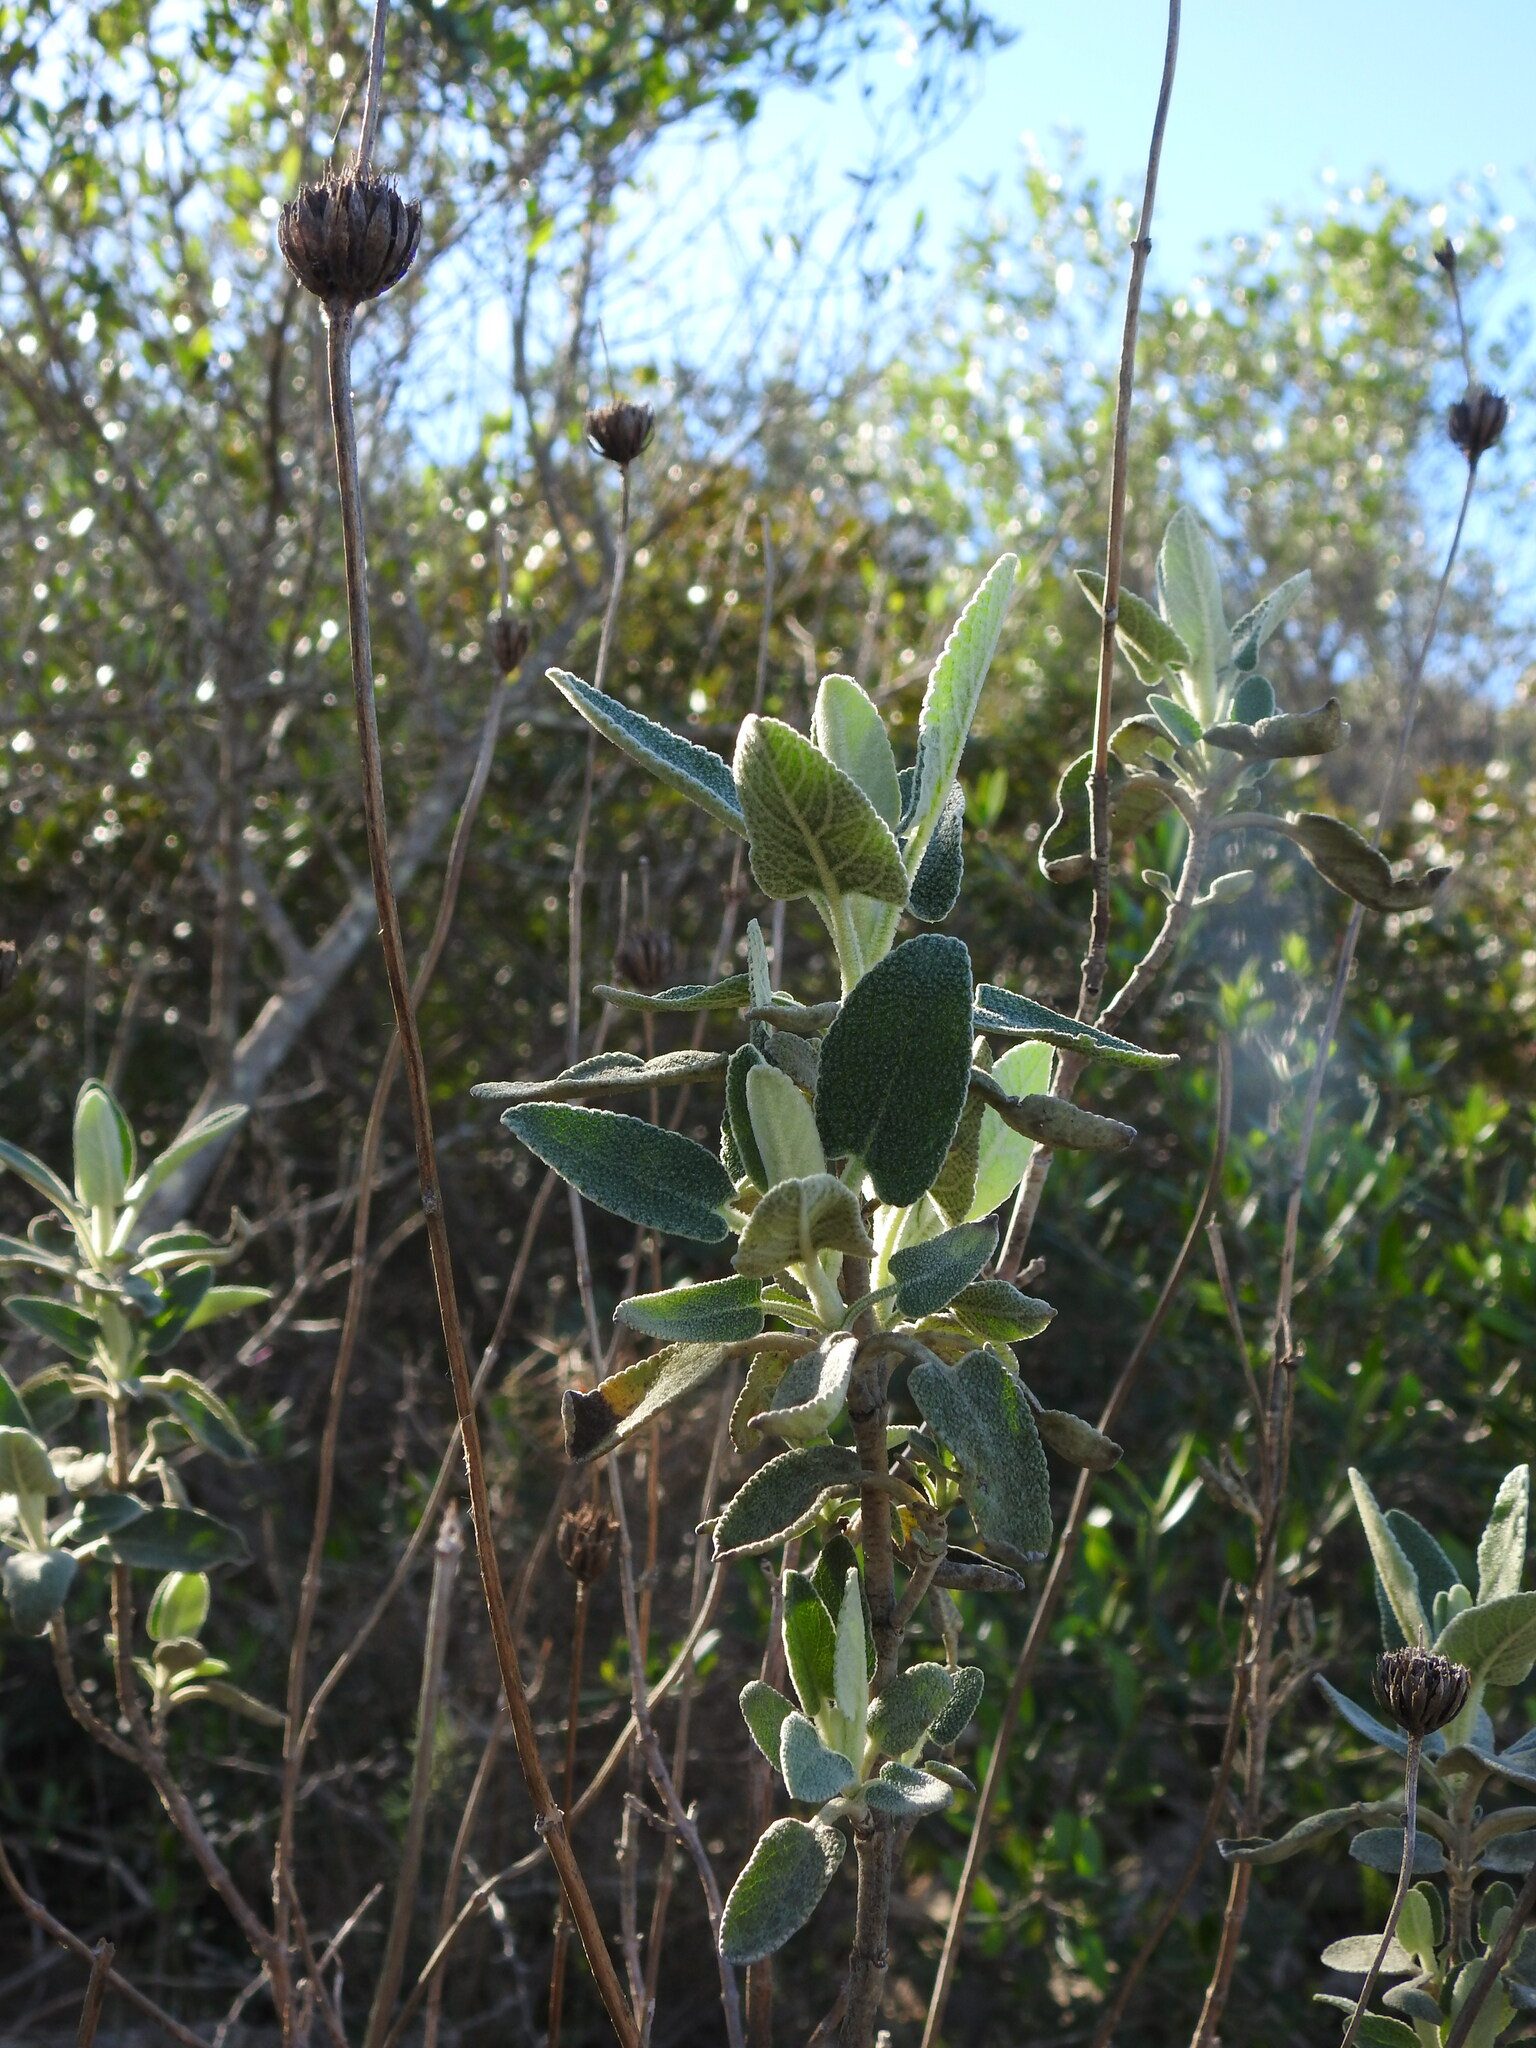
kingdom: Plantae
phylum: Tracheophyta
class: Magnoliopsida
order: Lamiales
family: Lamiaceae
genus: Phlomis
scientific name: Phlomis purpurea
